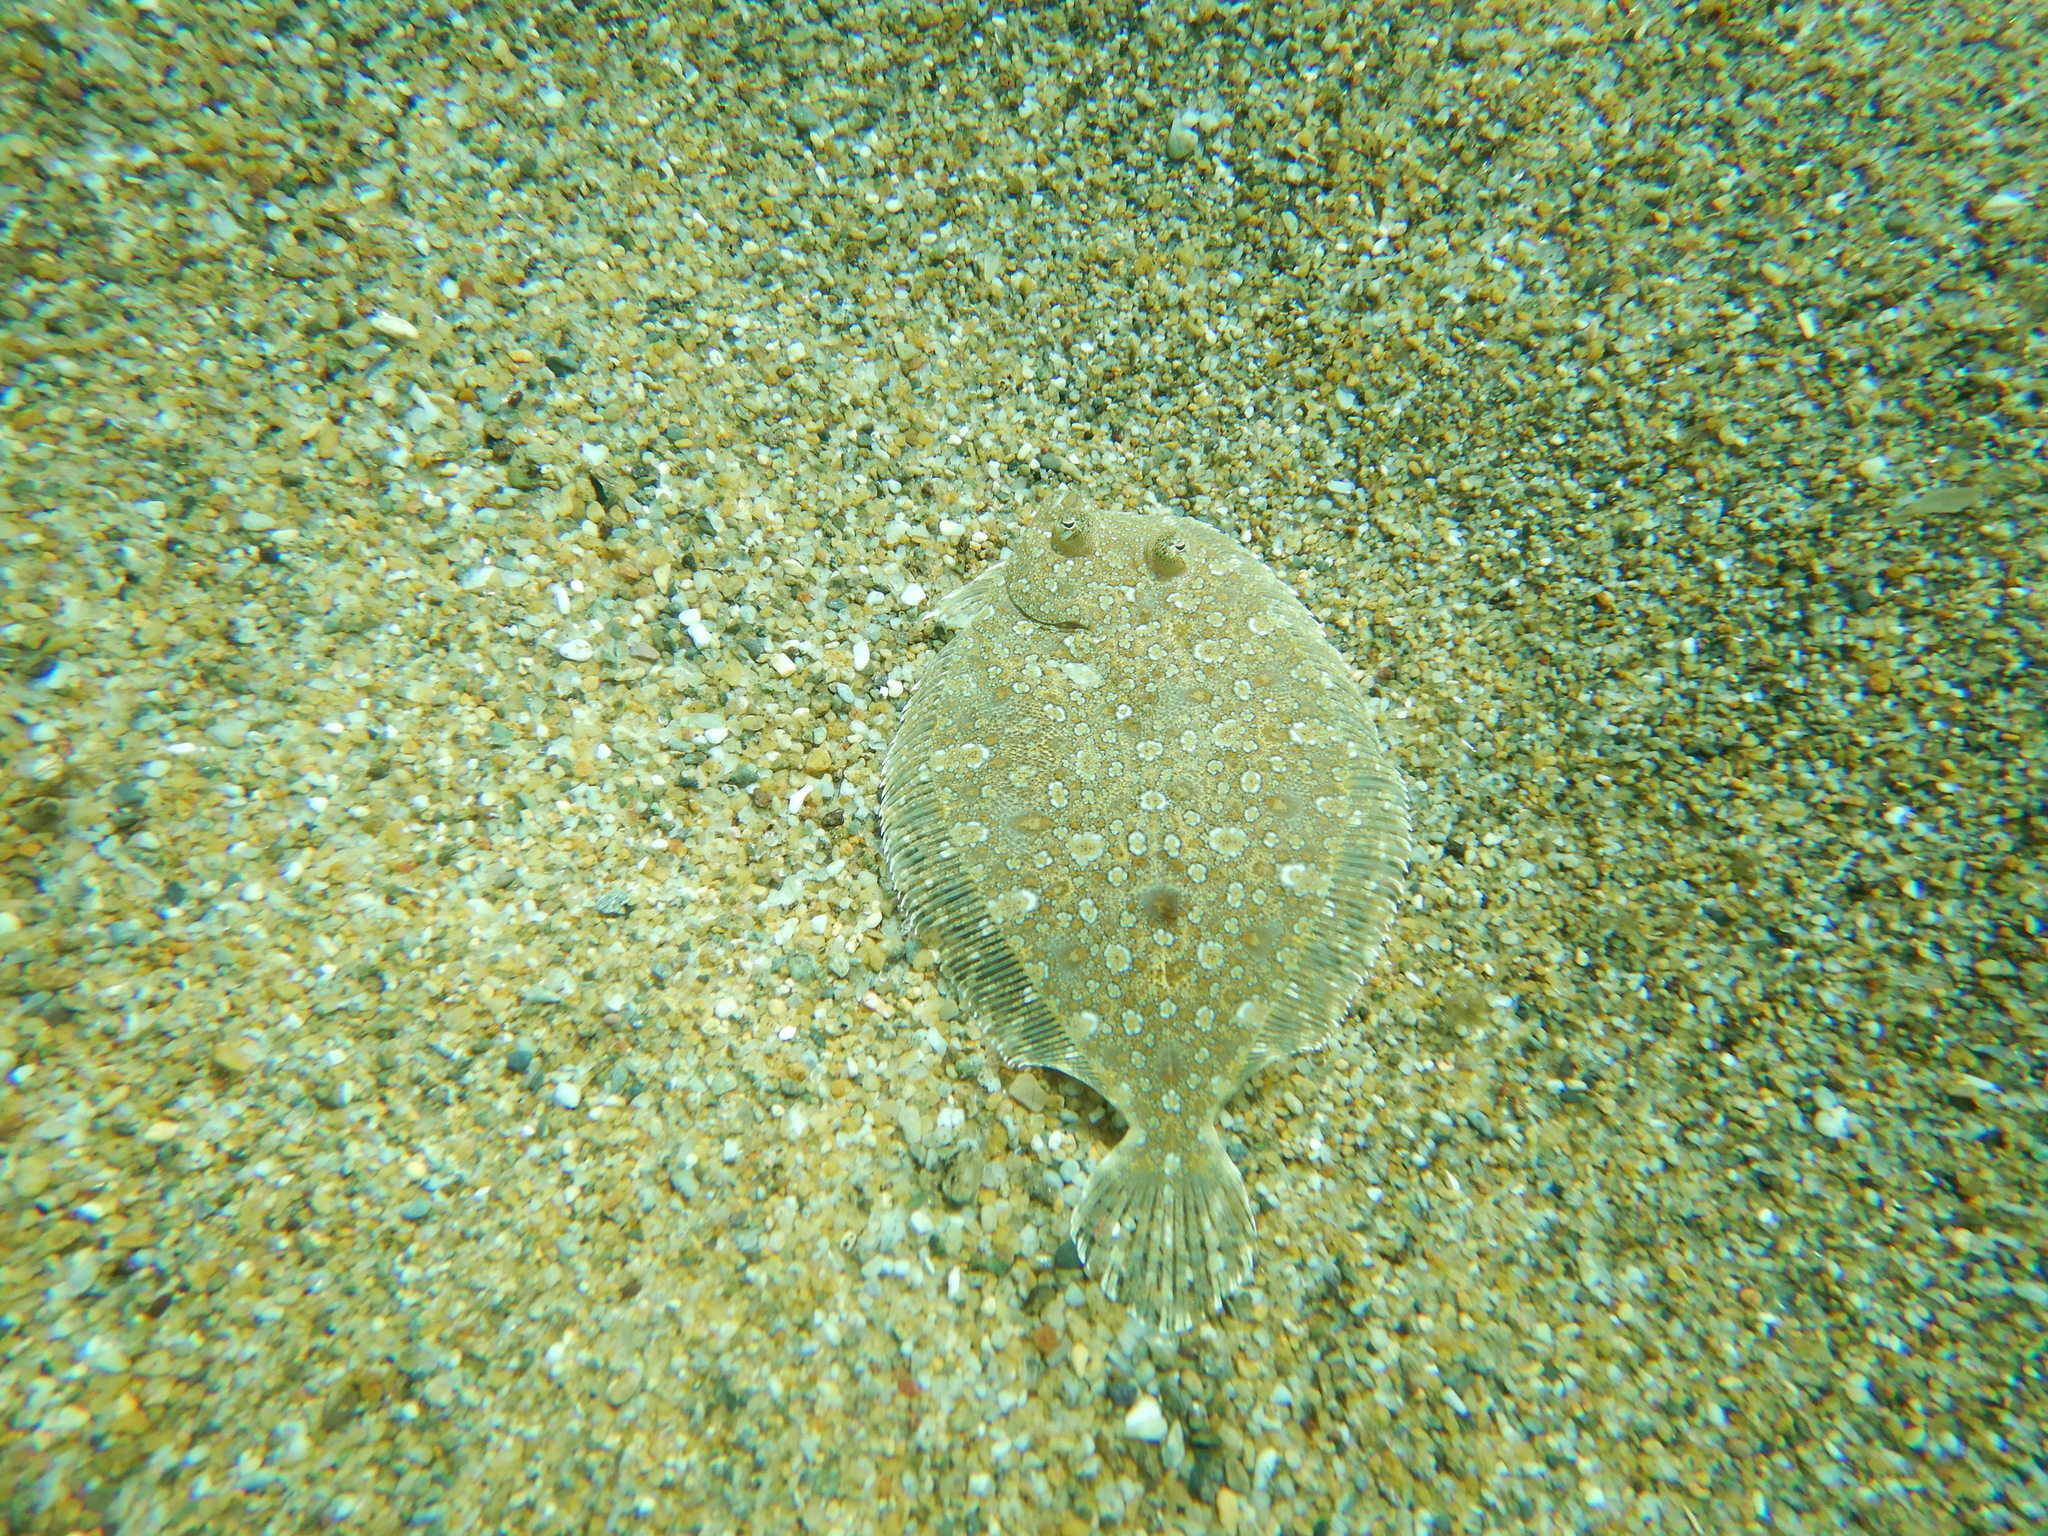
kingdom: Animalia
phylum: Chordata
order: Pleuronectiformes
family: Bothidae
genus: Bothus
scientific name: Bothus podas
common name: Wide-eyed flounder
